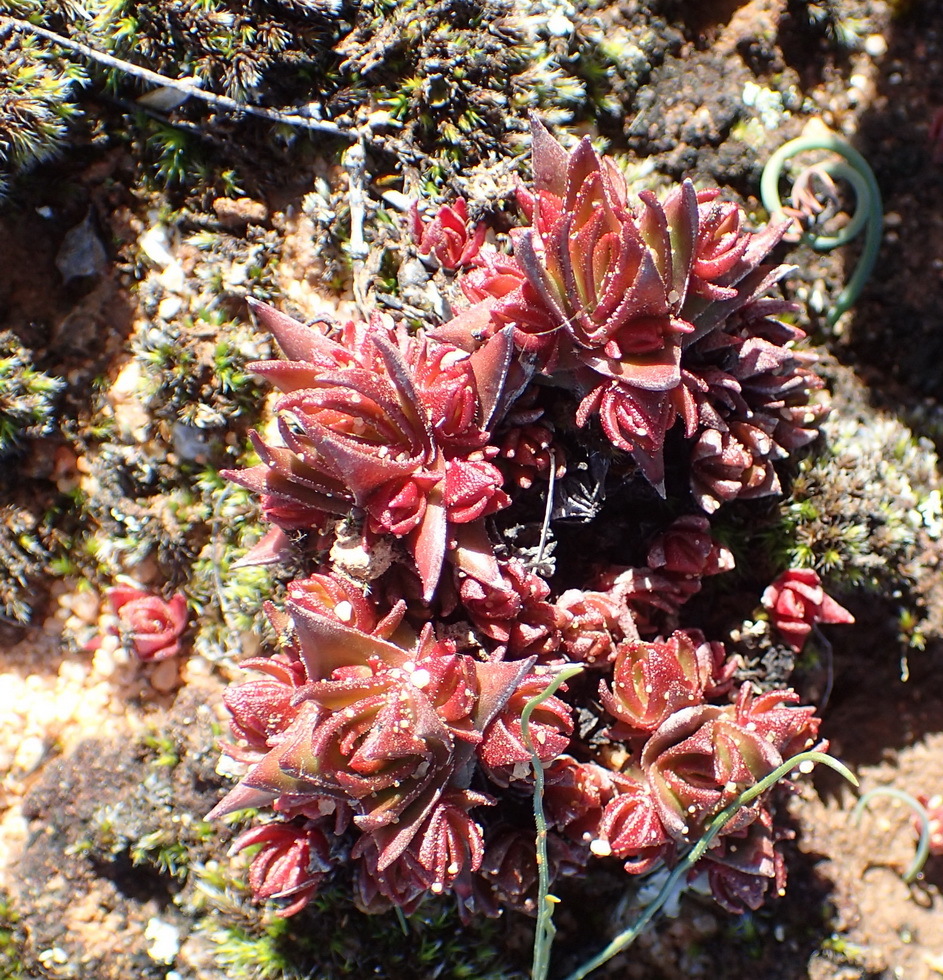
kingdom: Plantae
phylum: Tracheophyta
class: Magnoliopsida
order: Saxifragales
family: Crassulaceae
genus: Crassula
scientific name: Crassula alpestris
